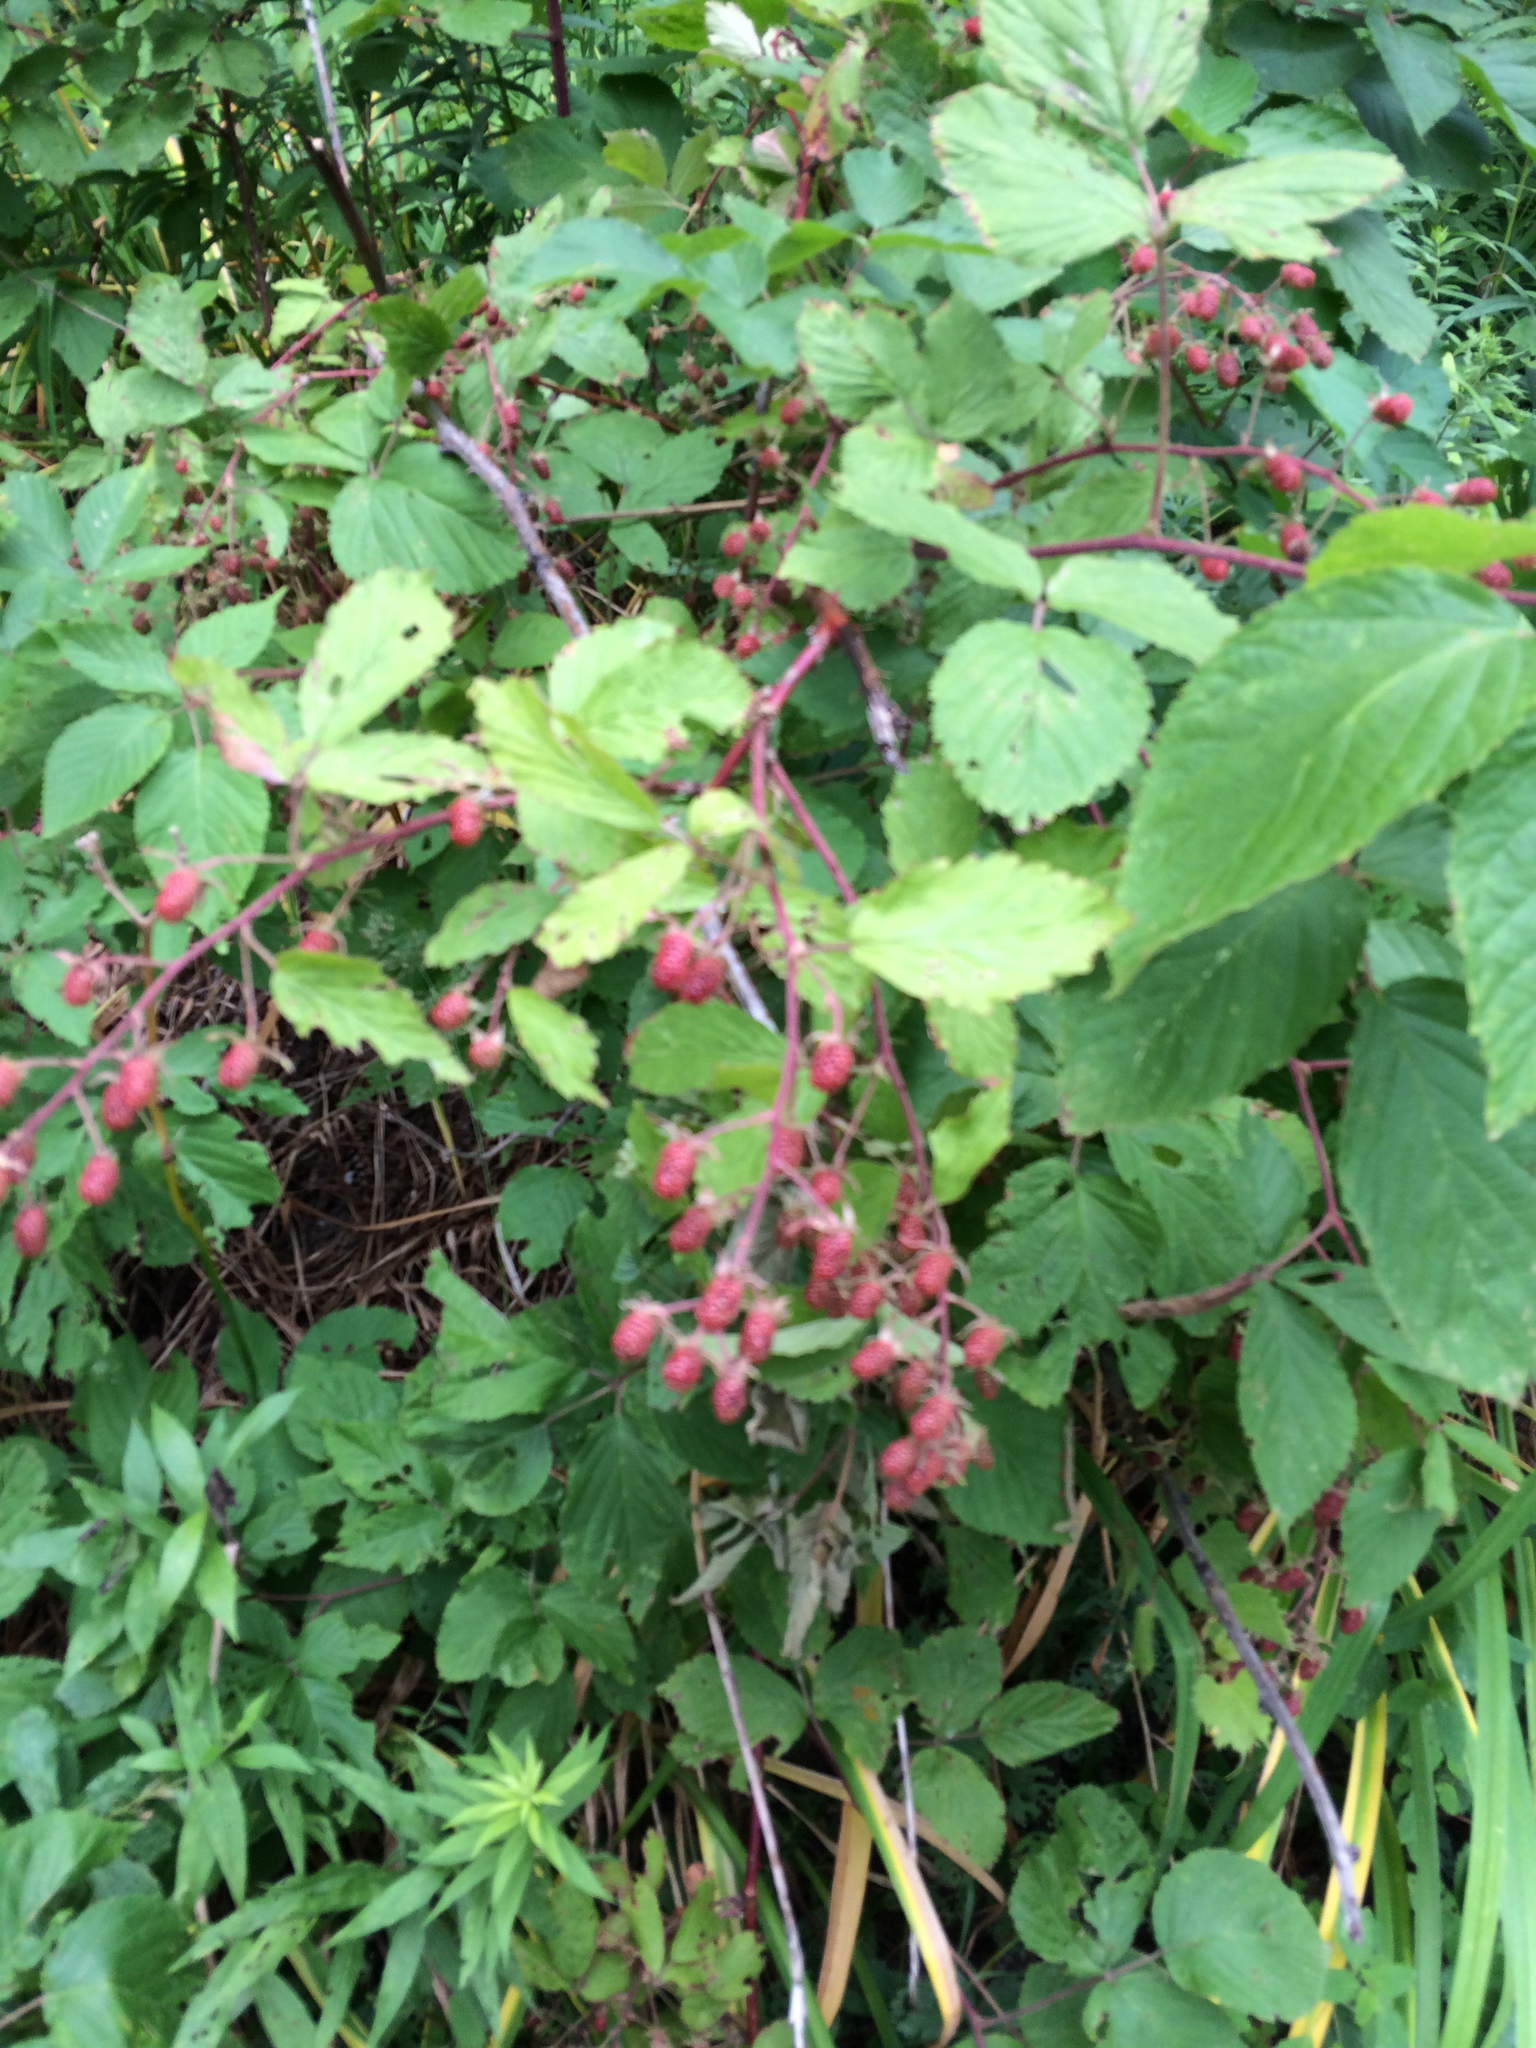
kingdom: Plantae
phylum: Tracheophyta
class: Magnoliopsida
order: Rosales
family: Rosaceae
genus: Rubus
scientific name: Rubus allegheniensis
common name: Allegheny blackberry
